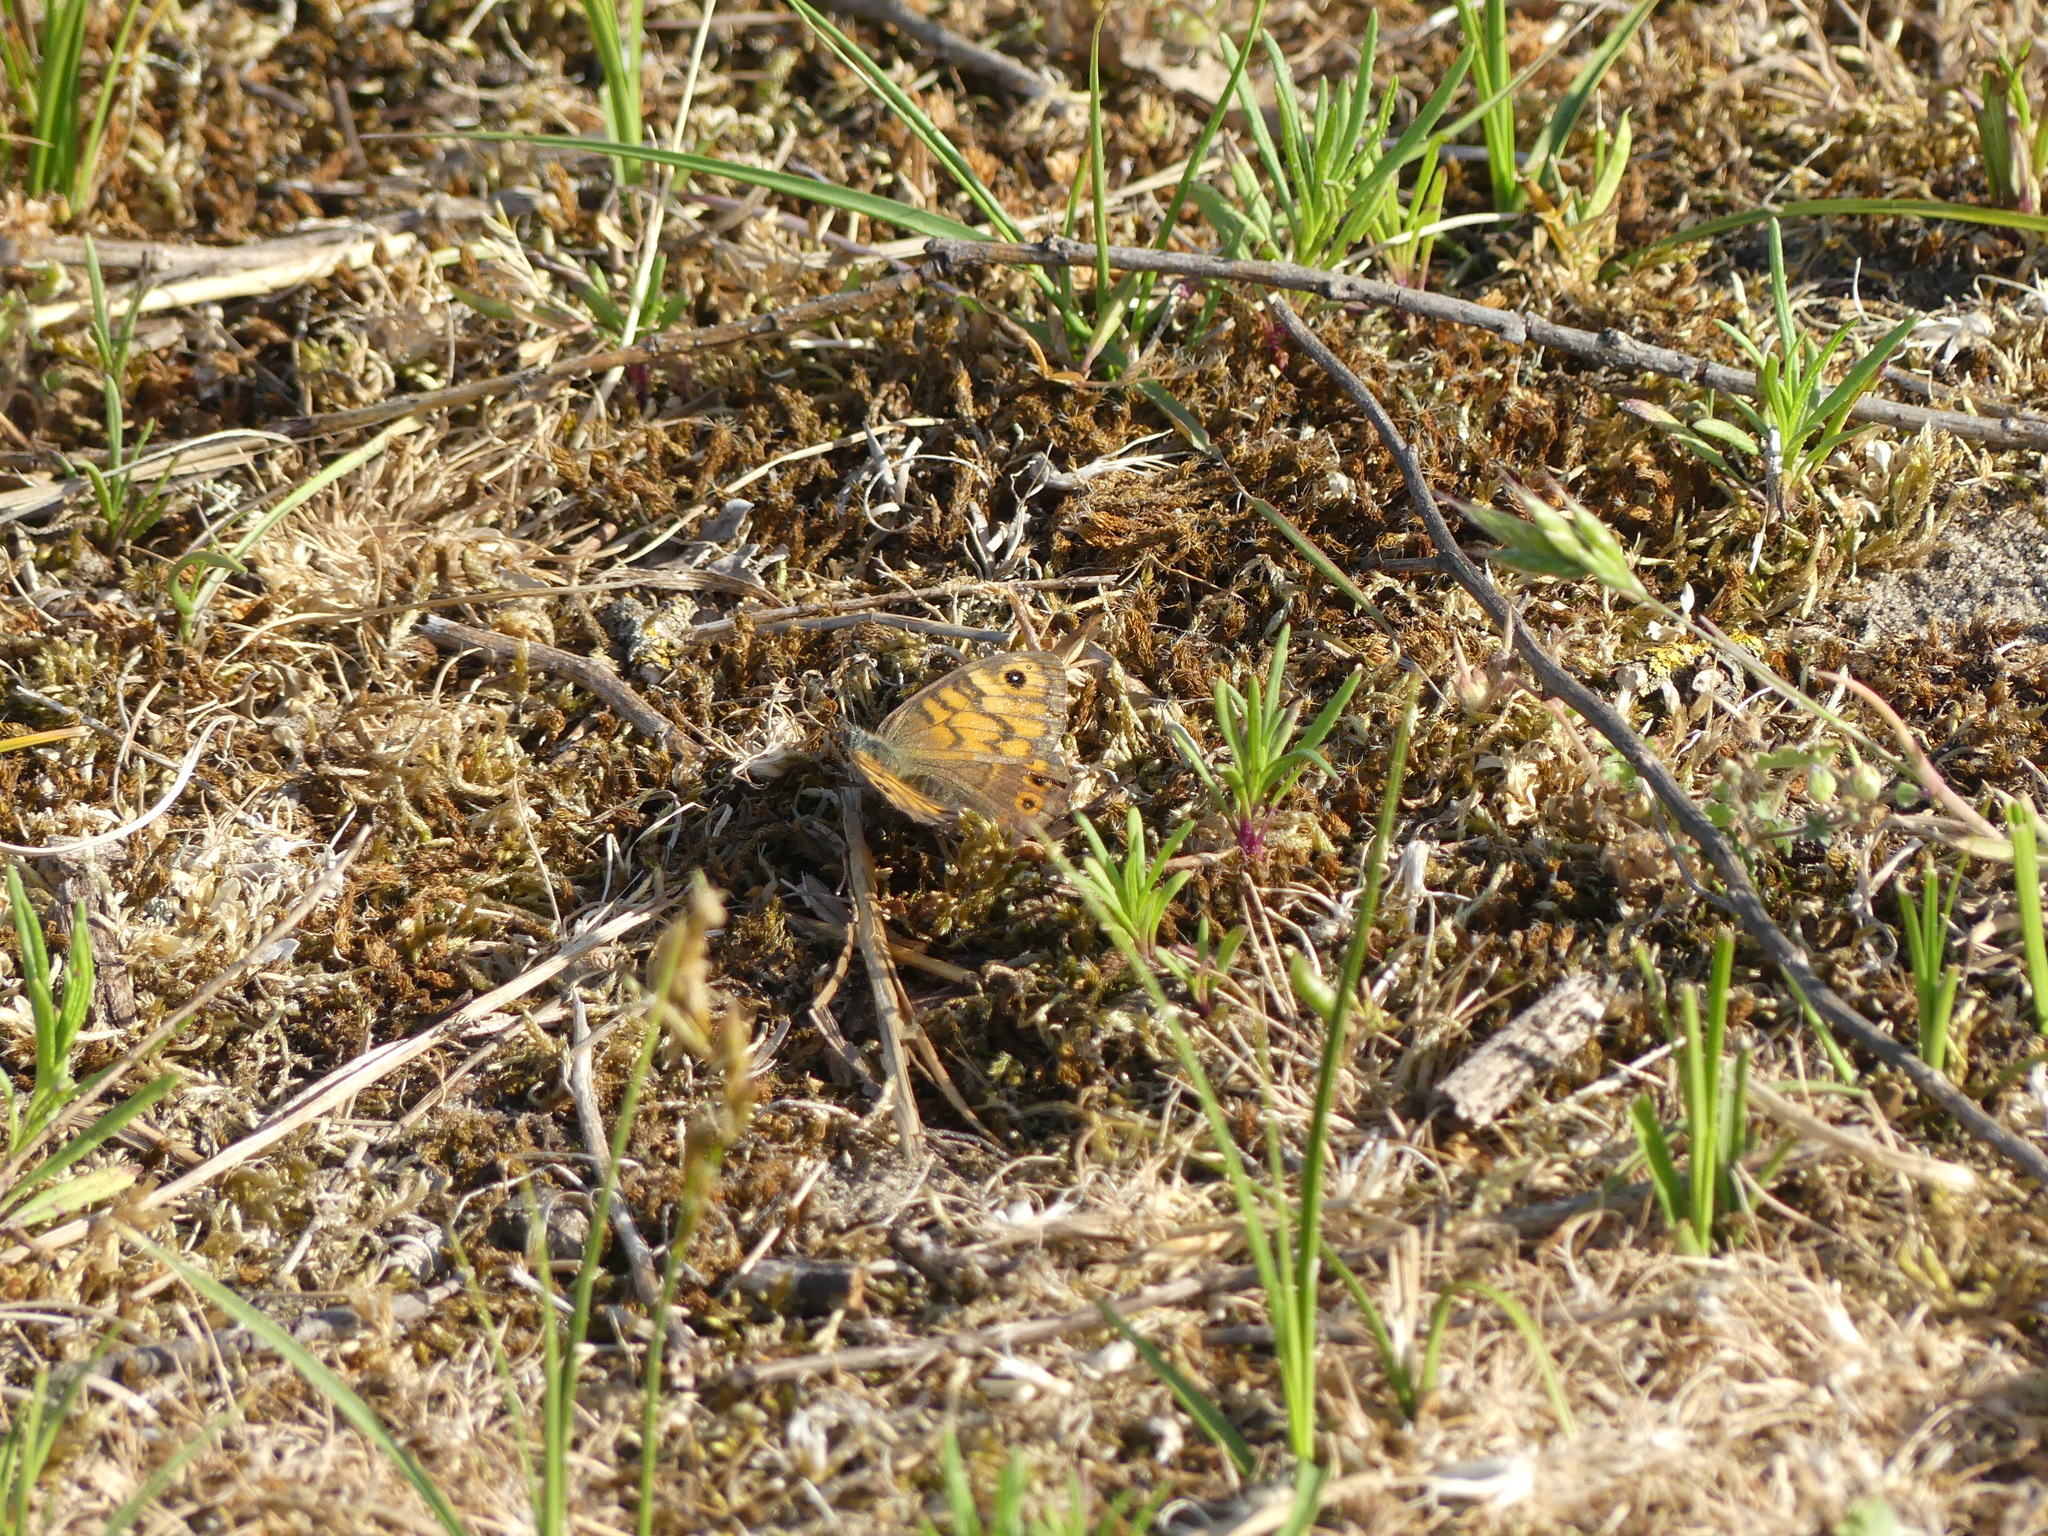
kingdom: Animalia
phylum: Arthropoda
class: Insecta
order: Lepidoptera
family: Nymphalidae
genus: Pararge
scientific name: Pararge Lasiommata megera
